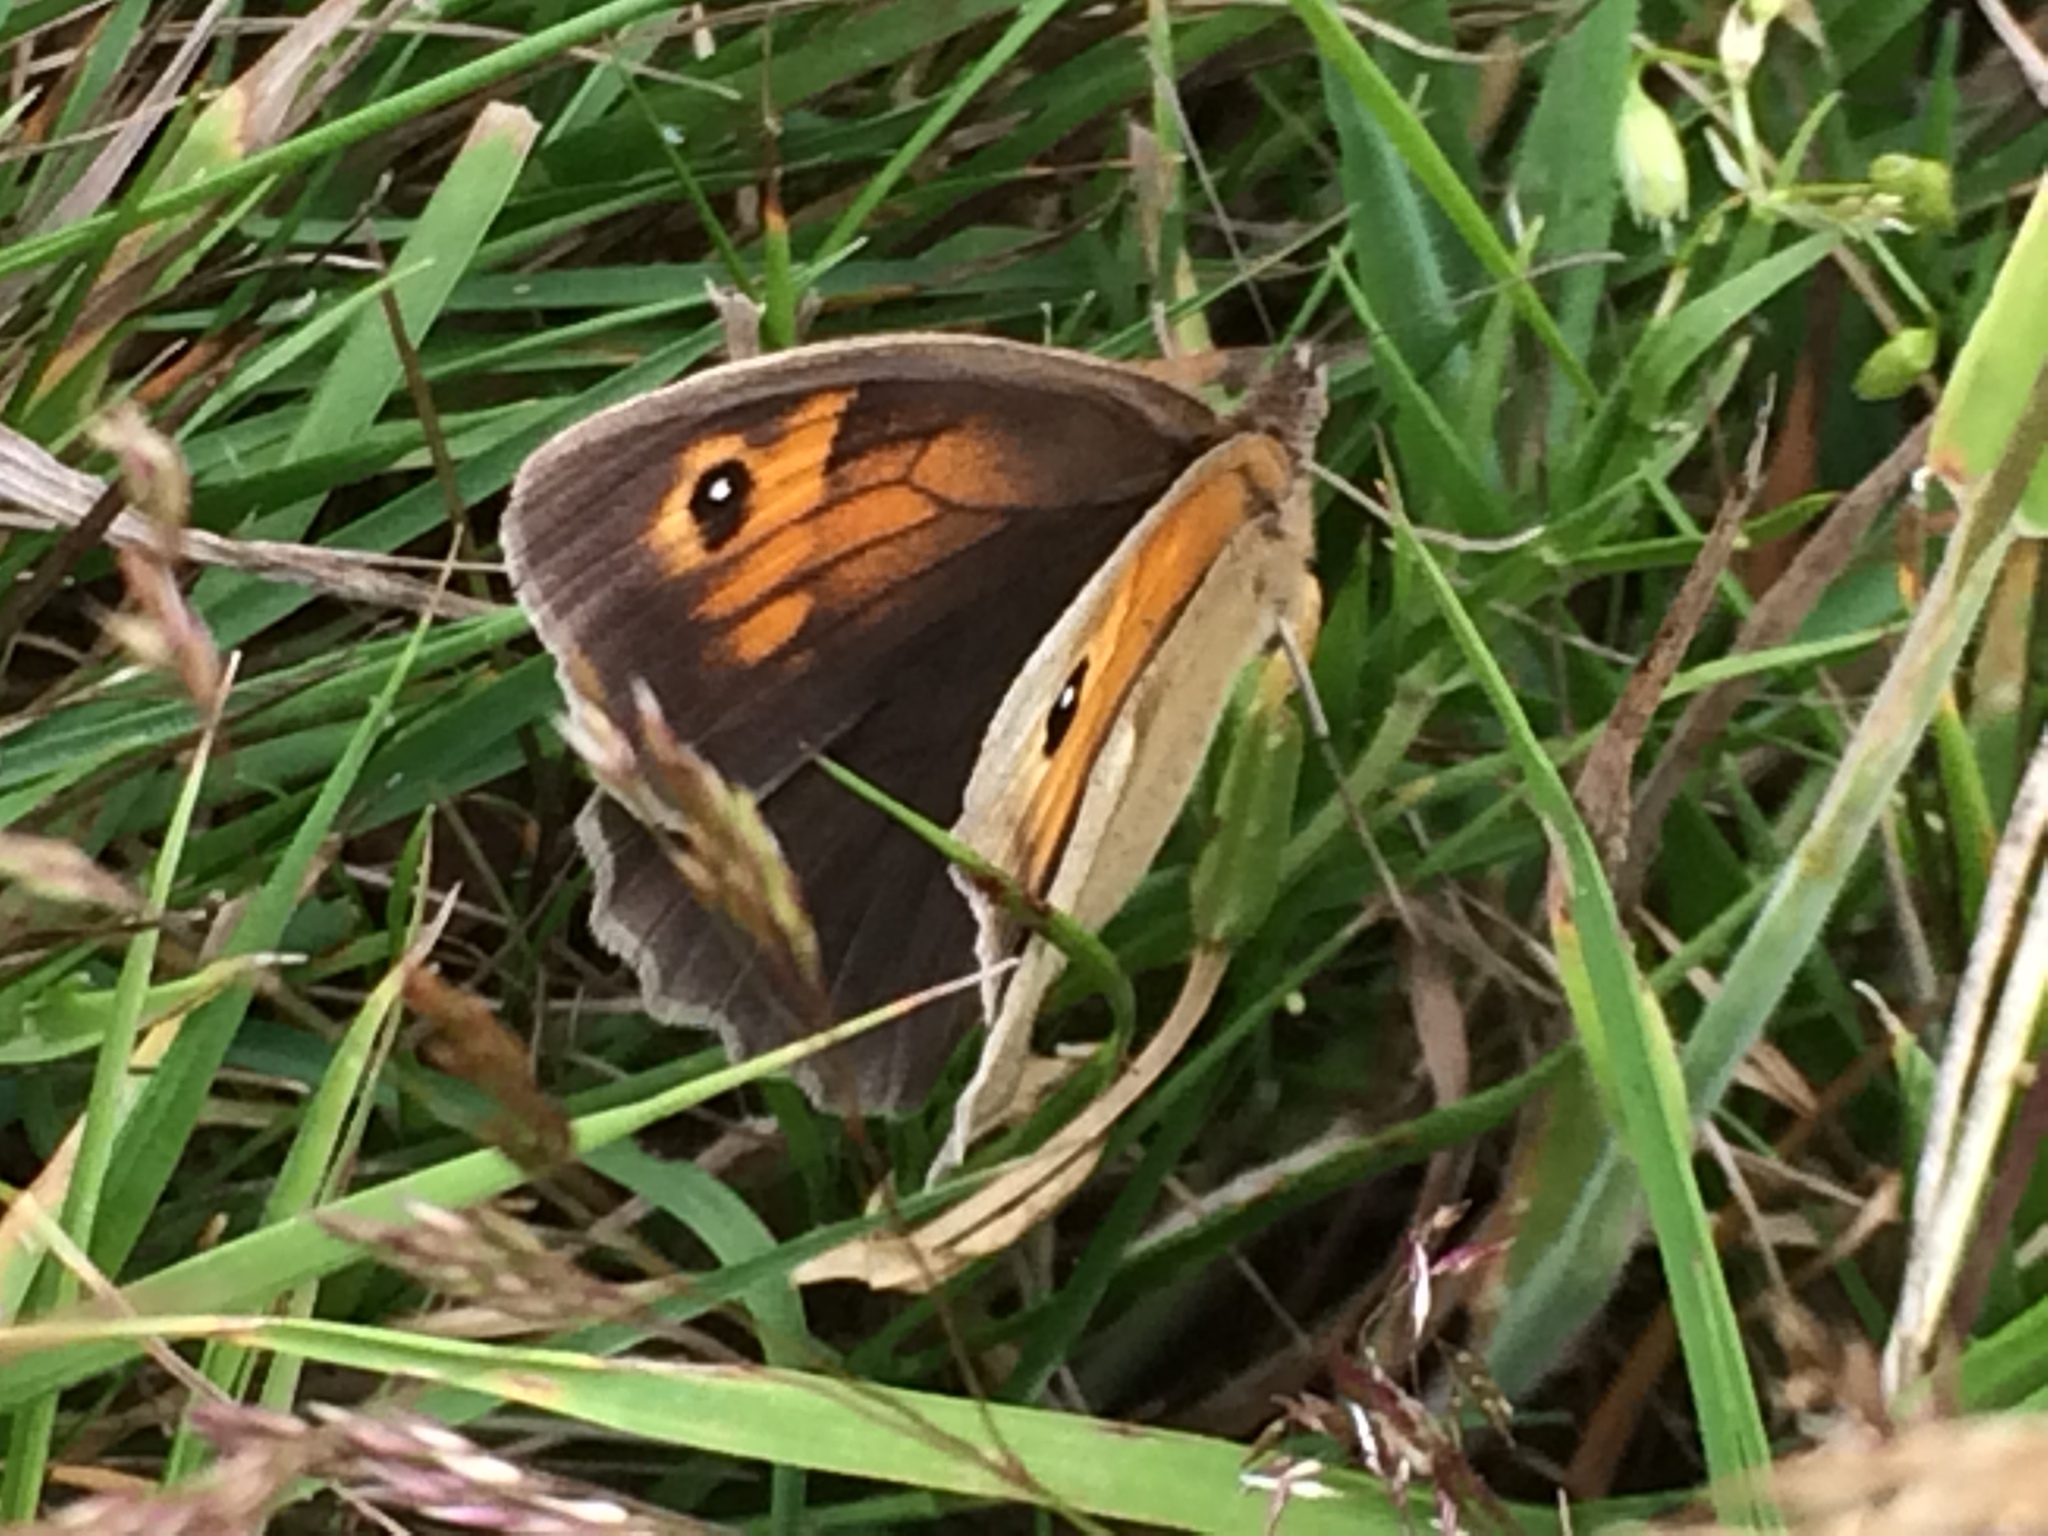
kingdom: Animalia
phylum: Arthropoda
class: Insecta
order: Lepidoptera
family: Nymphalidae
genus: Maniola
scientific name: Maniola jurtina
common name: Meadow brown
